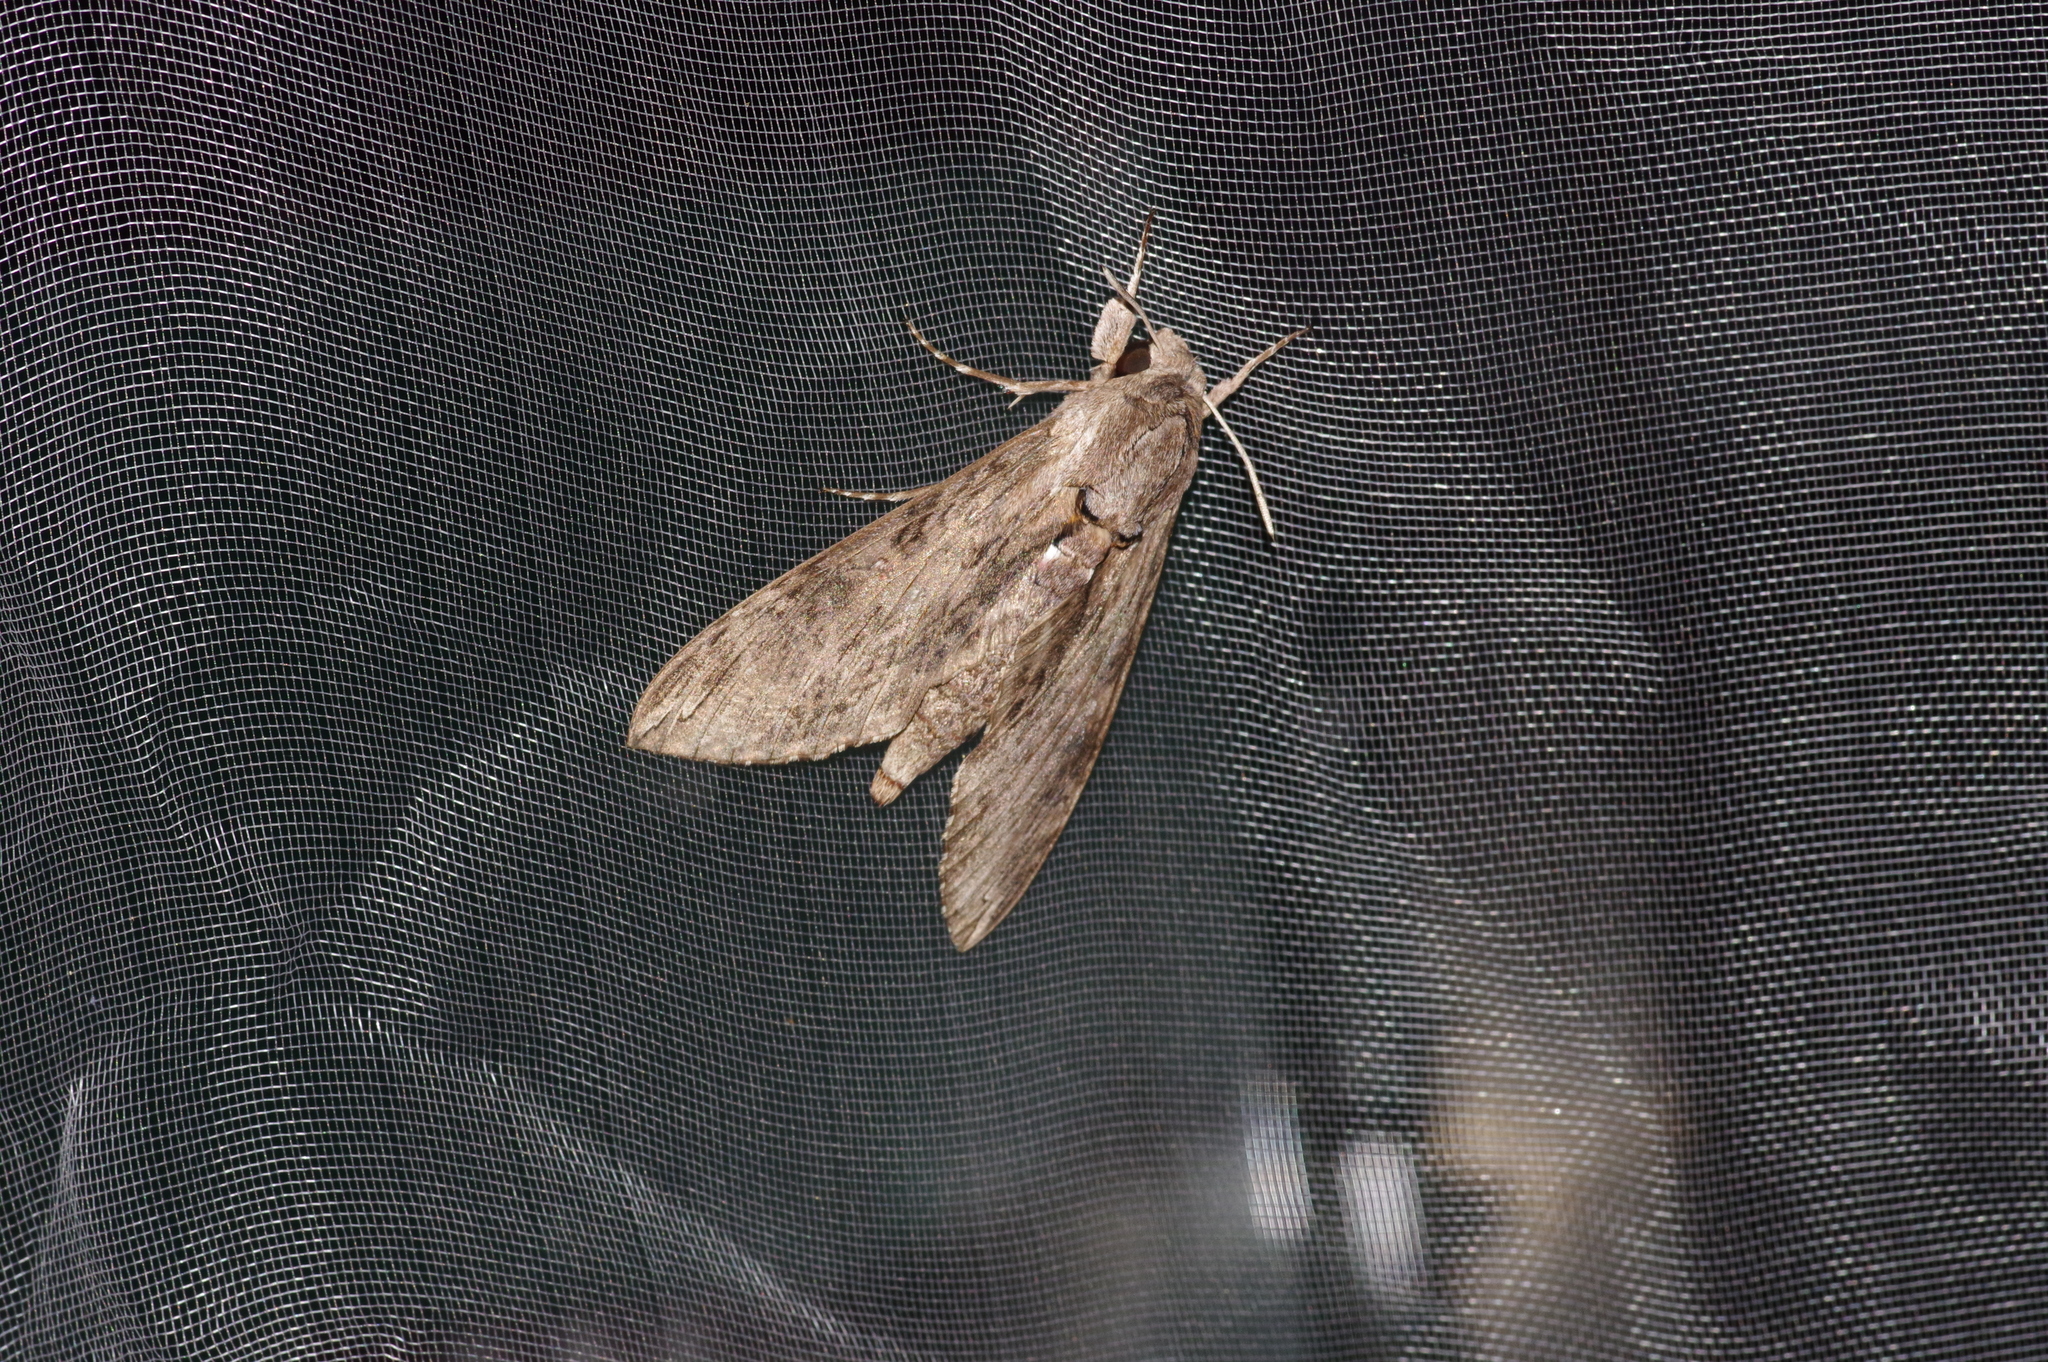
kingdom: Animalia
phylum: Arthropoda
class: Insecta
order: Lepidoptera
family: Sphingidae
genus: Agrius
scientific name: Agrius convolvuli
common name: Convolvulus hawkmoth
